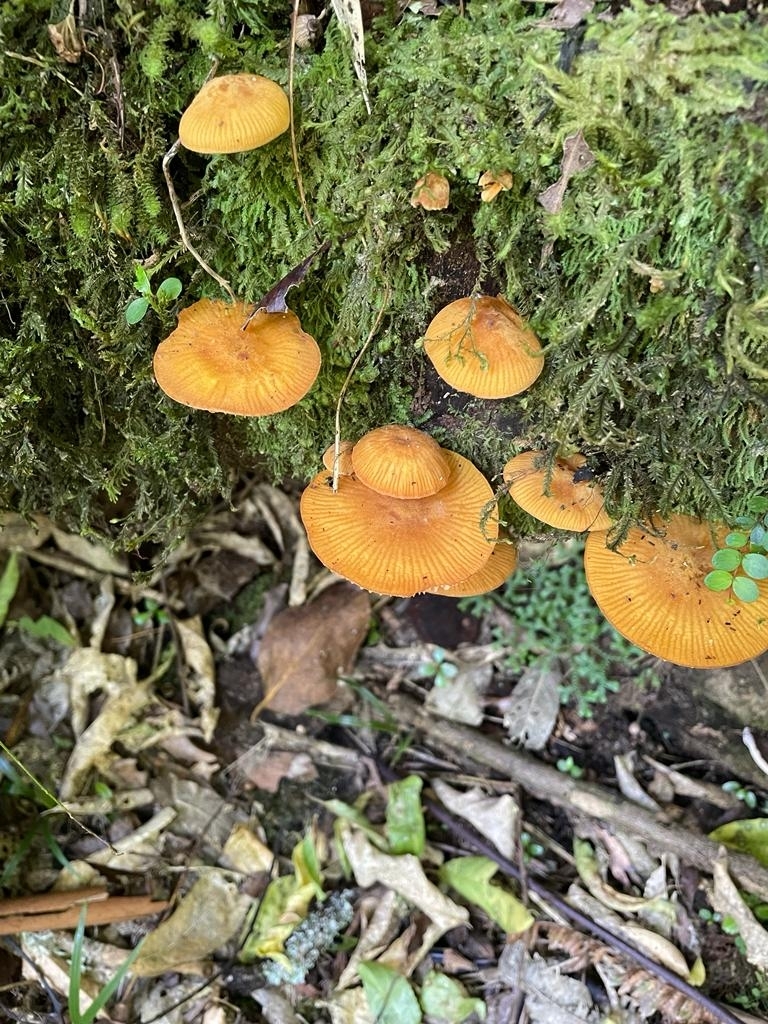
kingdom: Fungi
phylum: Basidiomycota
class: Agaricomycetes
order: Agaricales
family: Mycenaceae
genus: Heimiomyces
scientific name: Heimiomyces velutipes
